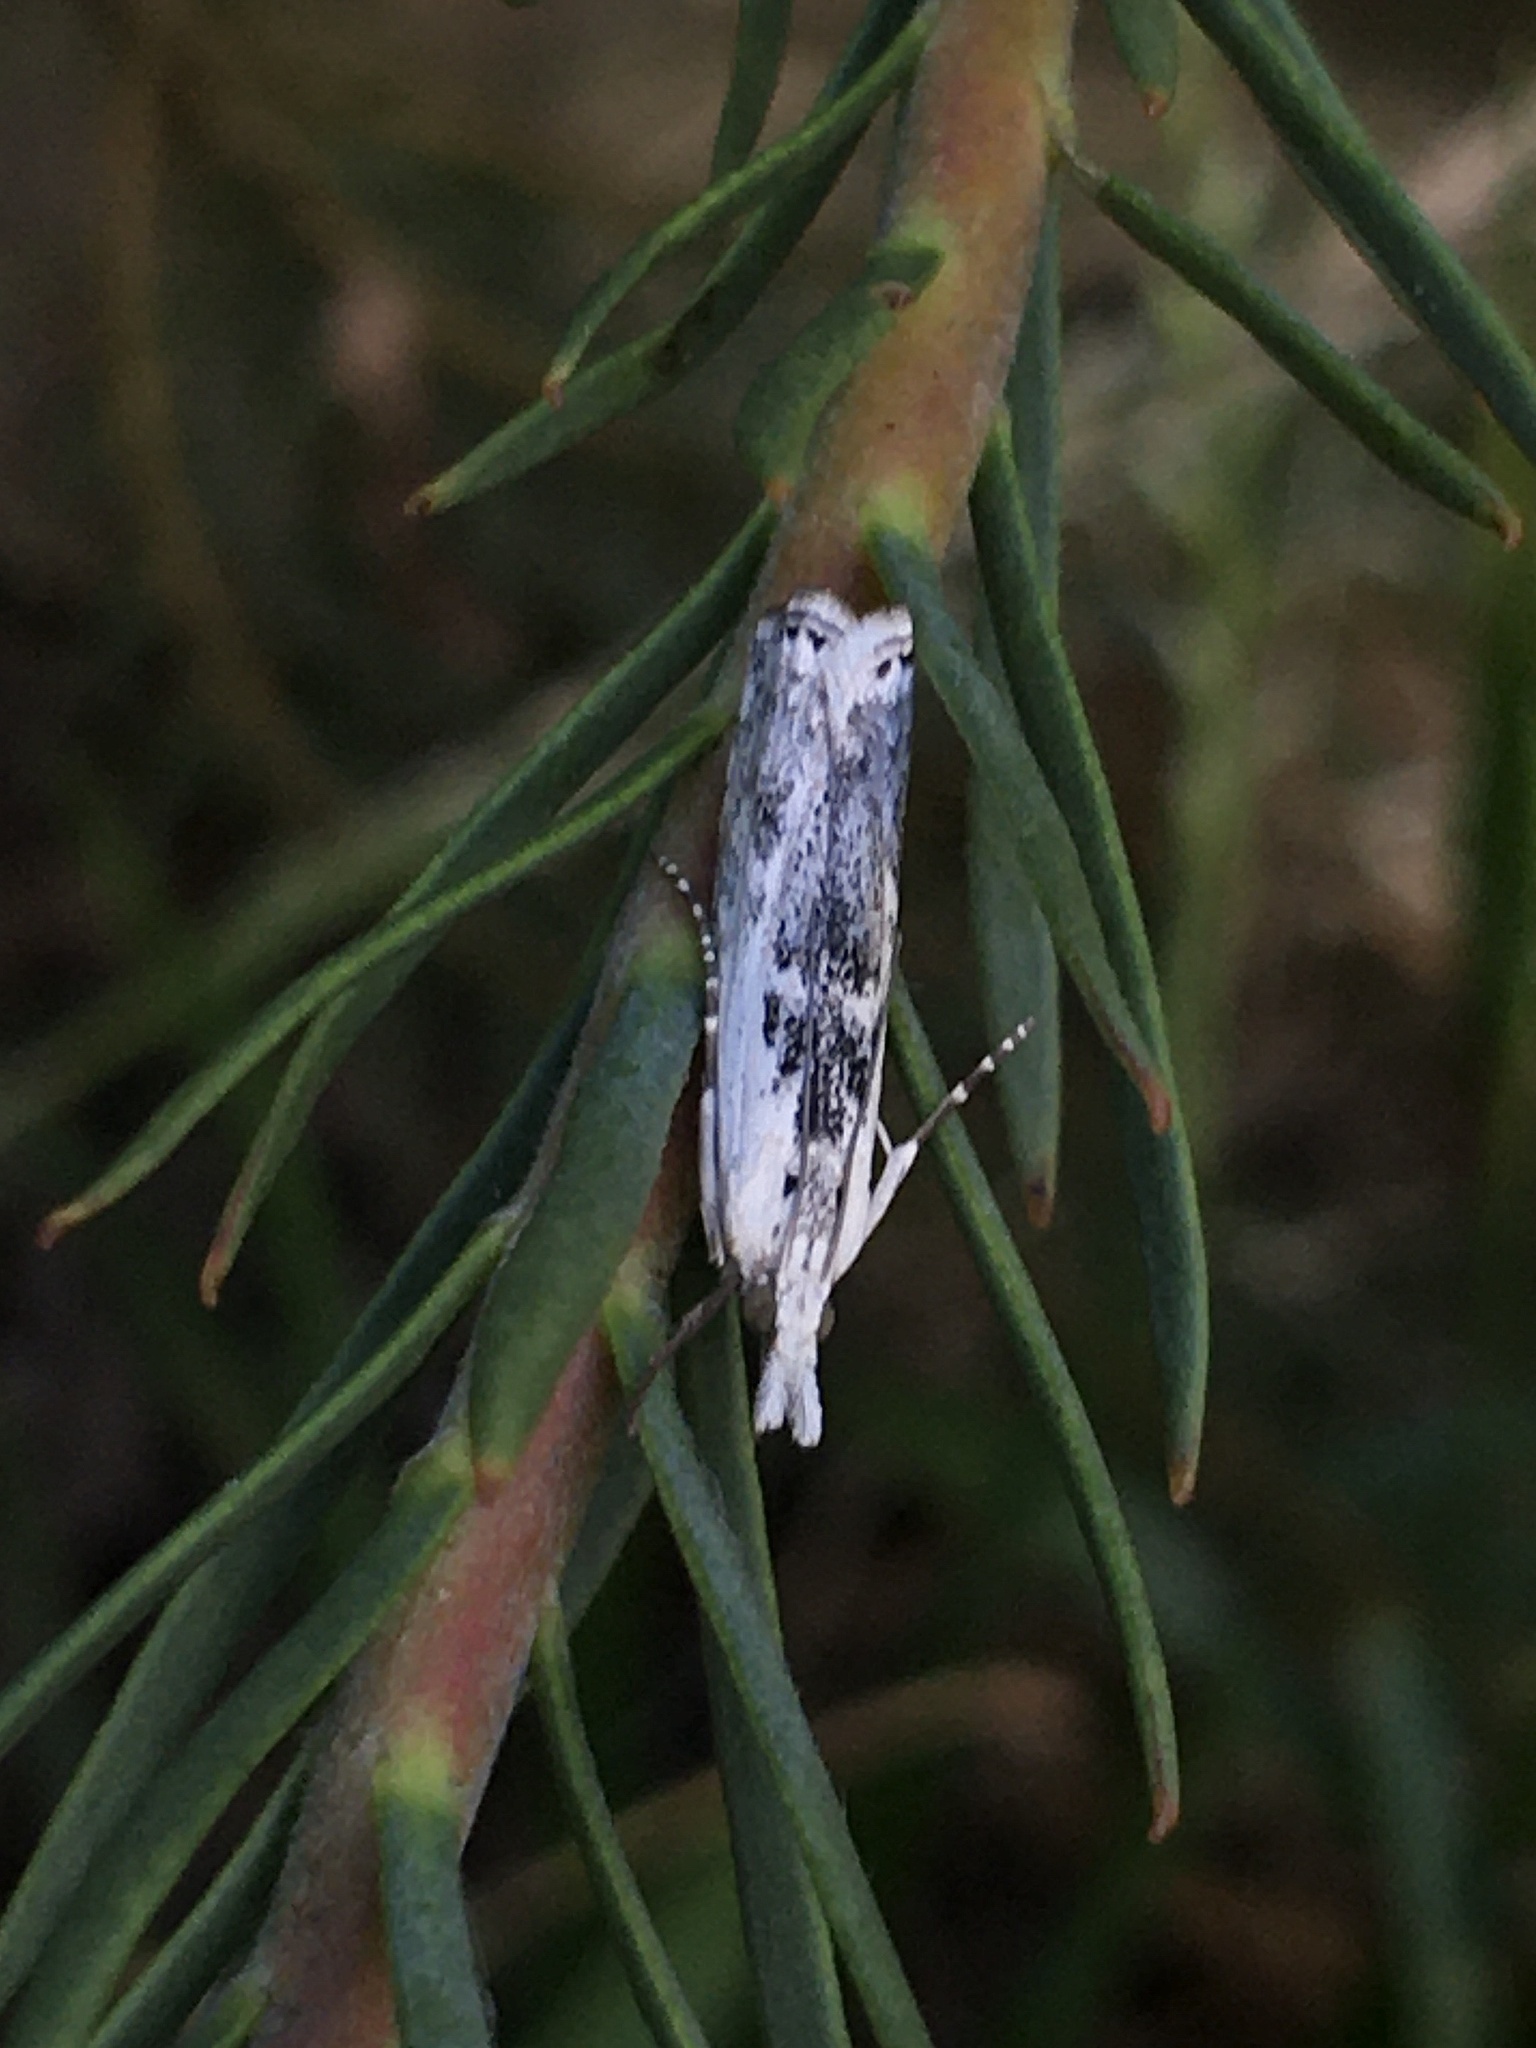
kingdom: Animalia
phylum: Arthropoda
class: Insecta
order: Lepidoptera
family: Crambidae
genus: Crambus
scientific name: Crambus sparsellus
